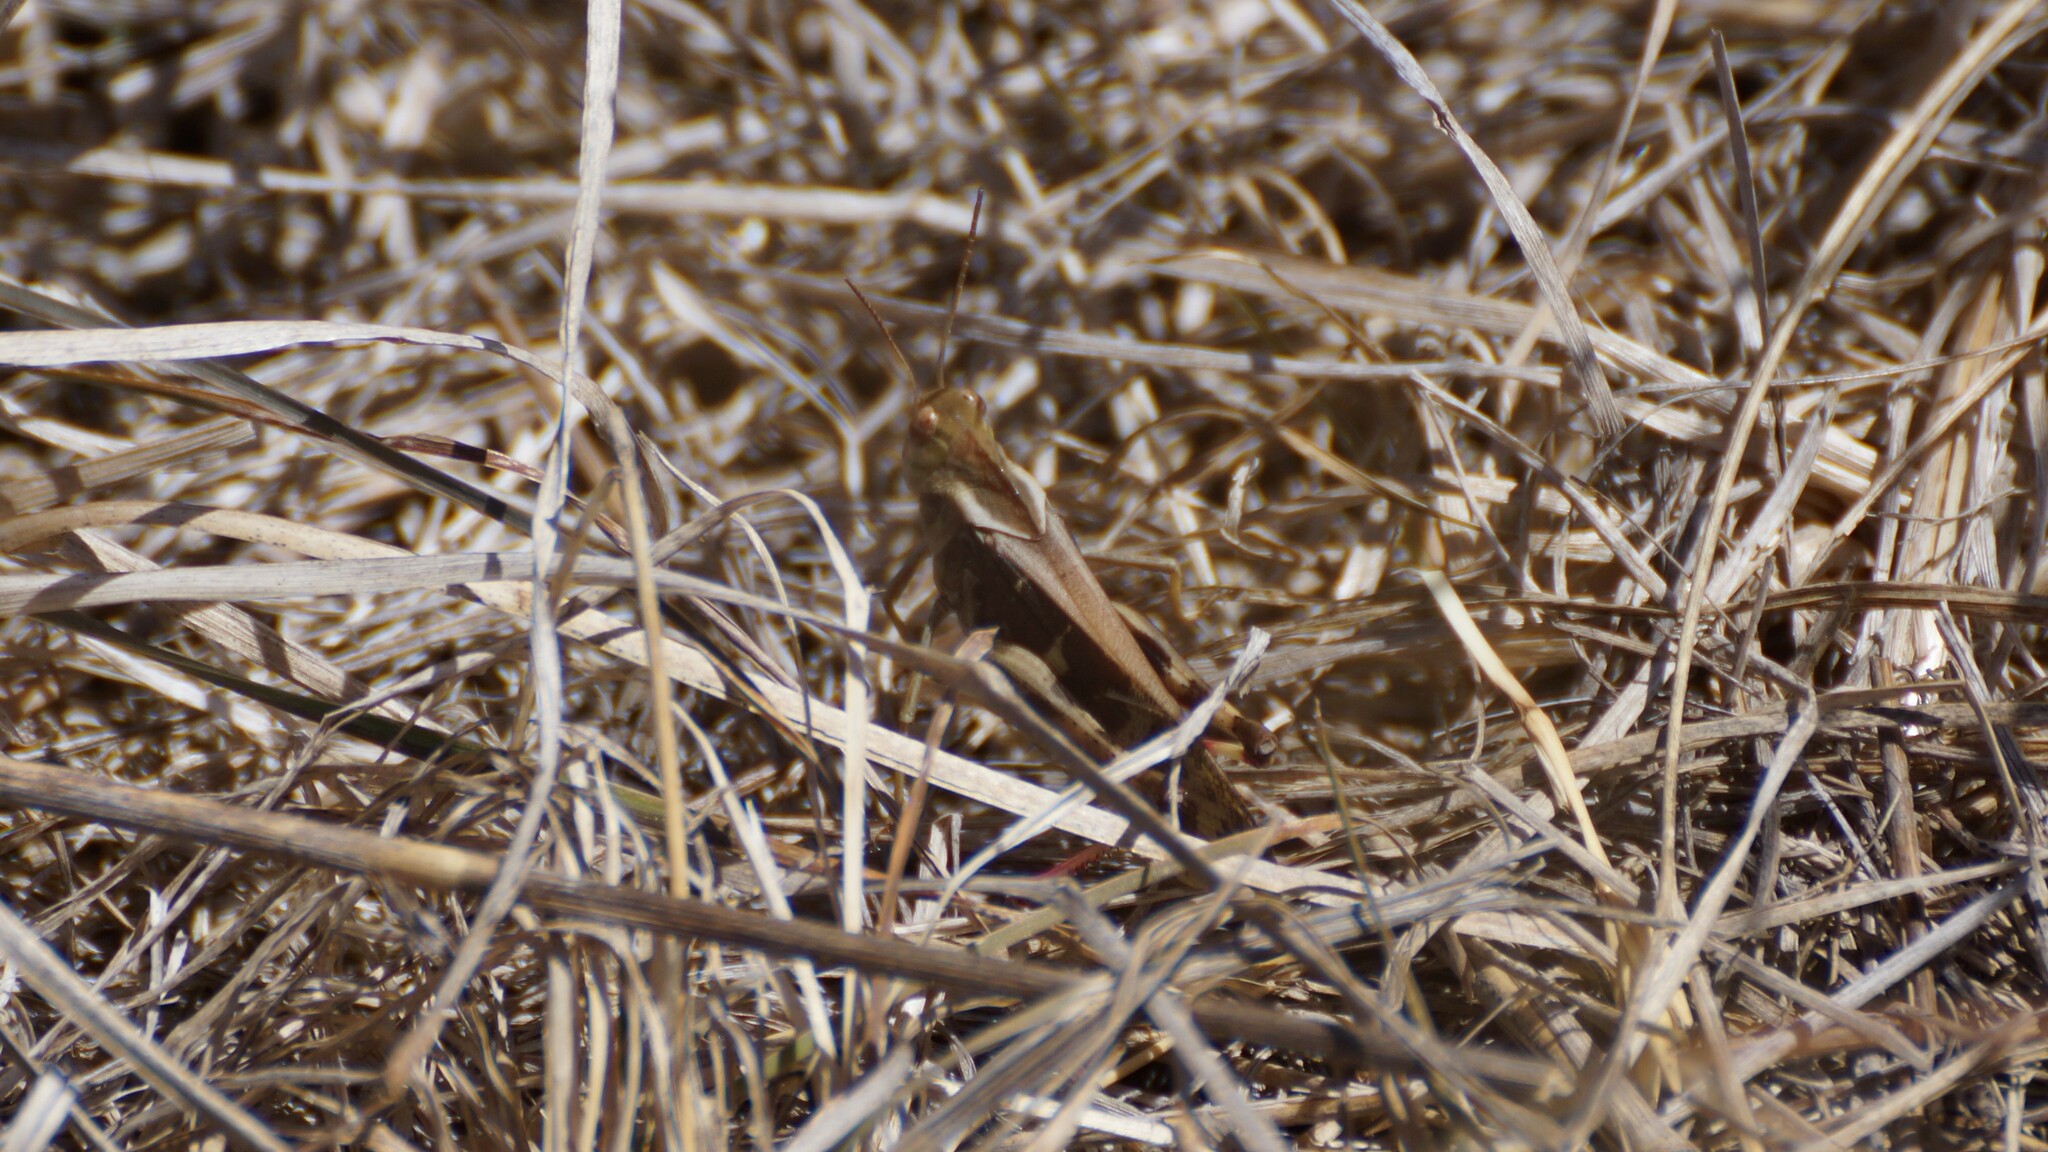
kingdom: Animalia
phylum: Arthropoda
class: Insecta
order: Orthoptera
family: Acrididae
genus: Gastrimargus
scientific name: Gastrimargus musicus
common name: Yellow-winged locust
